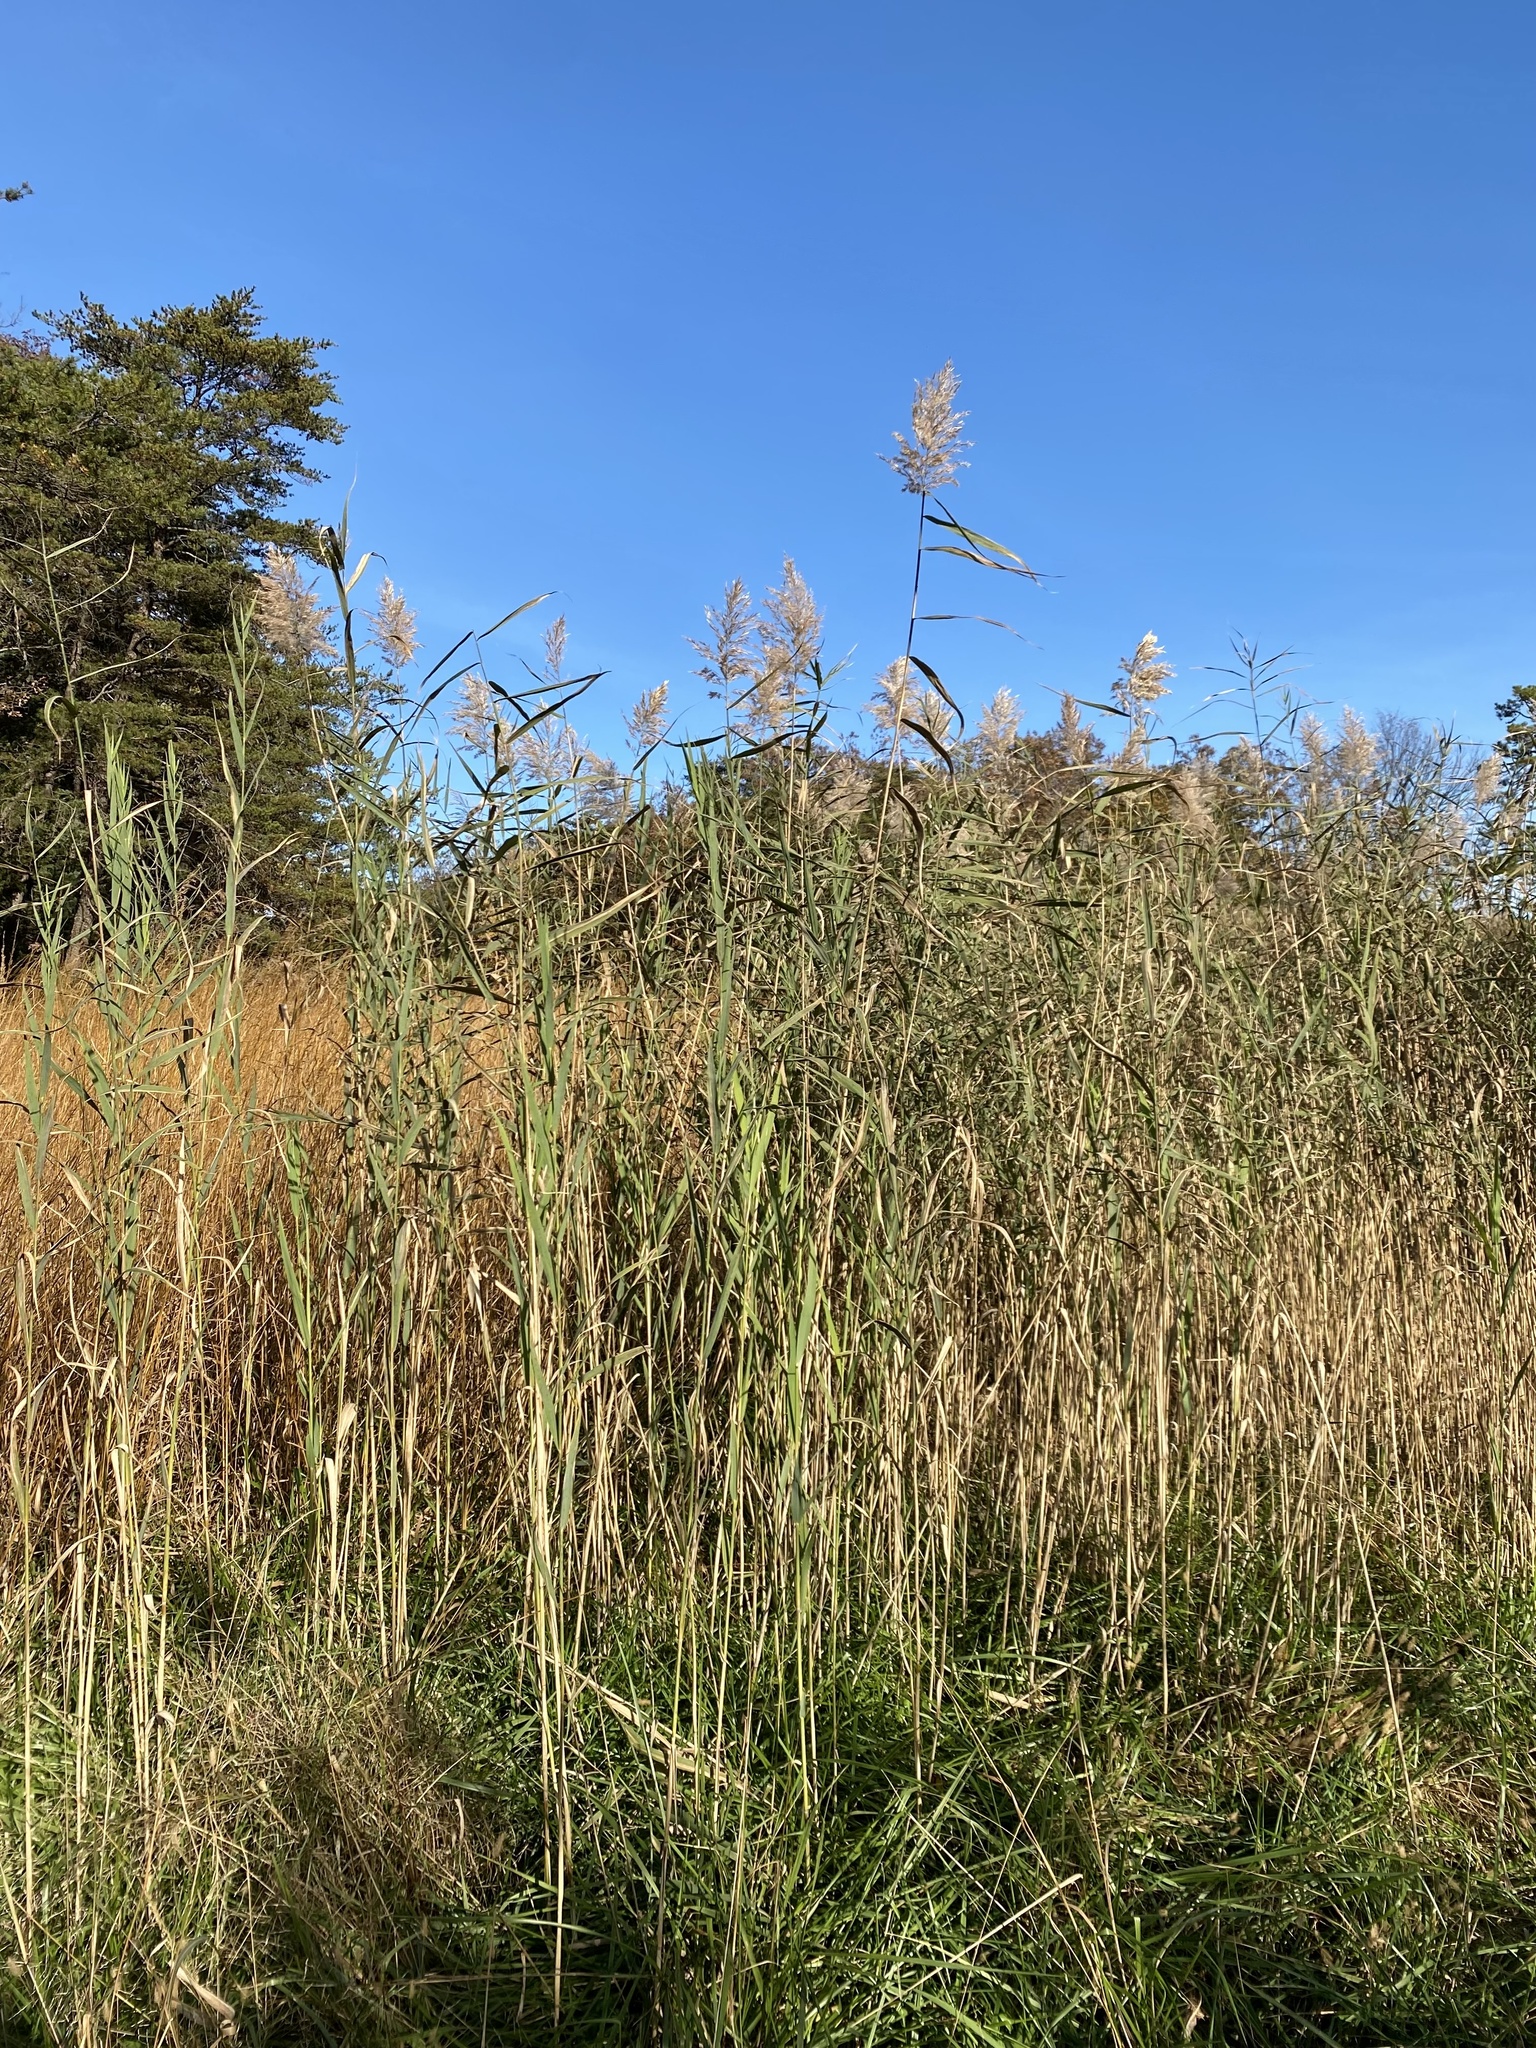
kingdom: Plantae
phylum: Tracheophyta
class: Liliopsida
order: Poales
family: Poaceae
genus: Phragmites
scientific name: Phragmites australis
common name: Common reed
